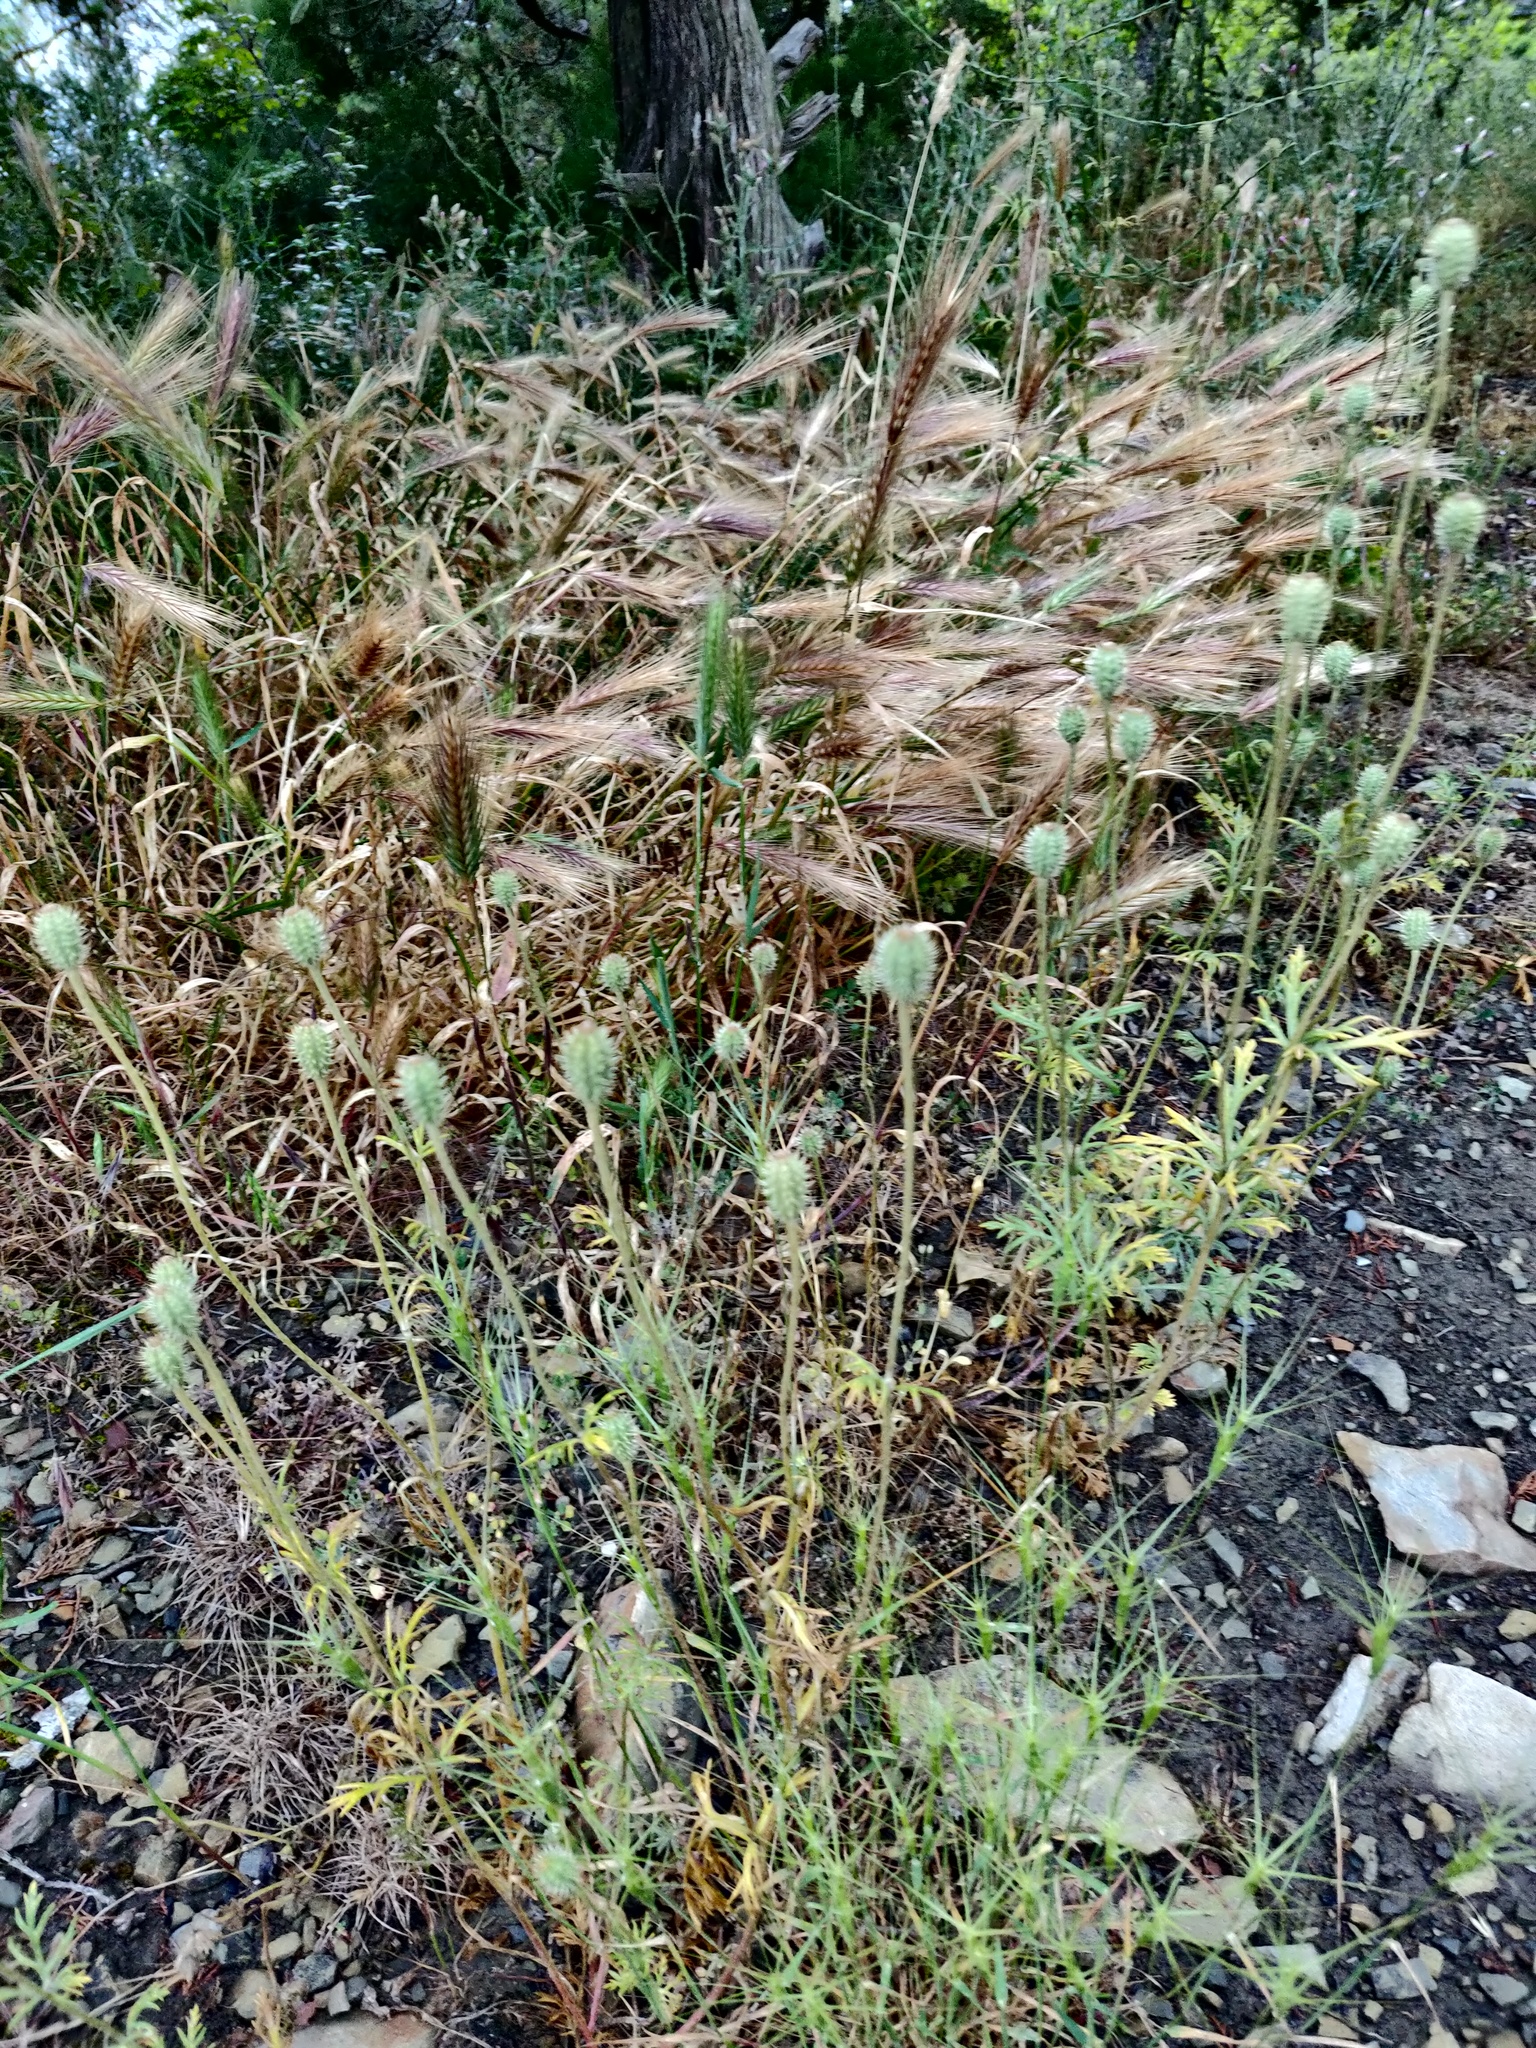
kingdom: Plantae
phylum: Tracheophyta
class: Magnoliopsida
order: Ranunculales
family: Papaveraceae
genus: Roemeria
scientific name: Roemeria hispida
